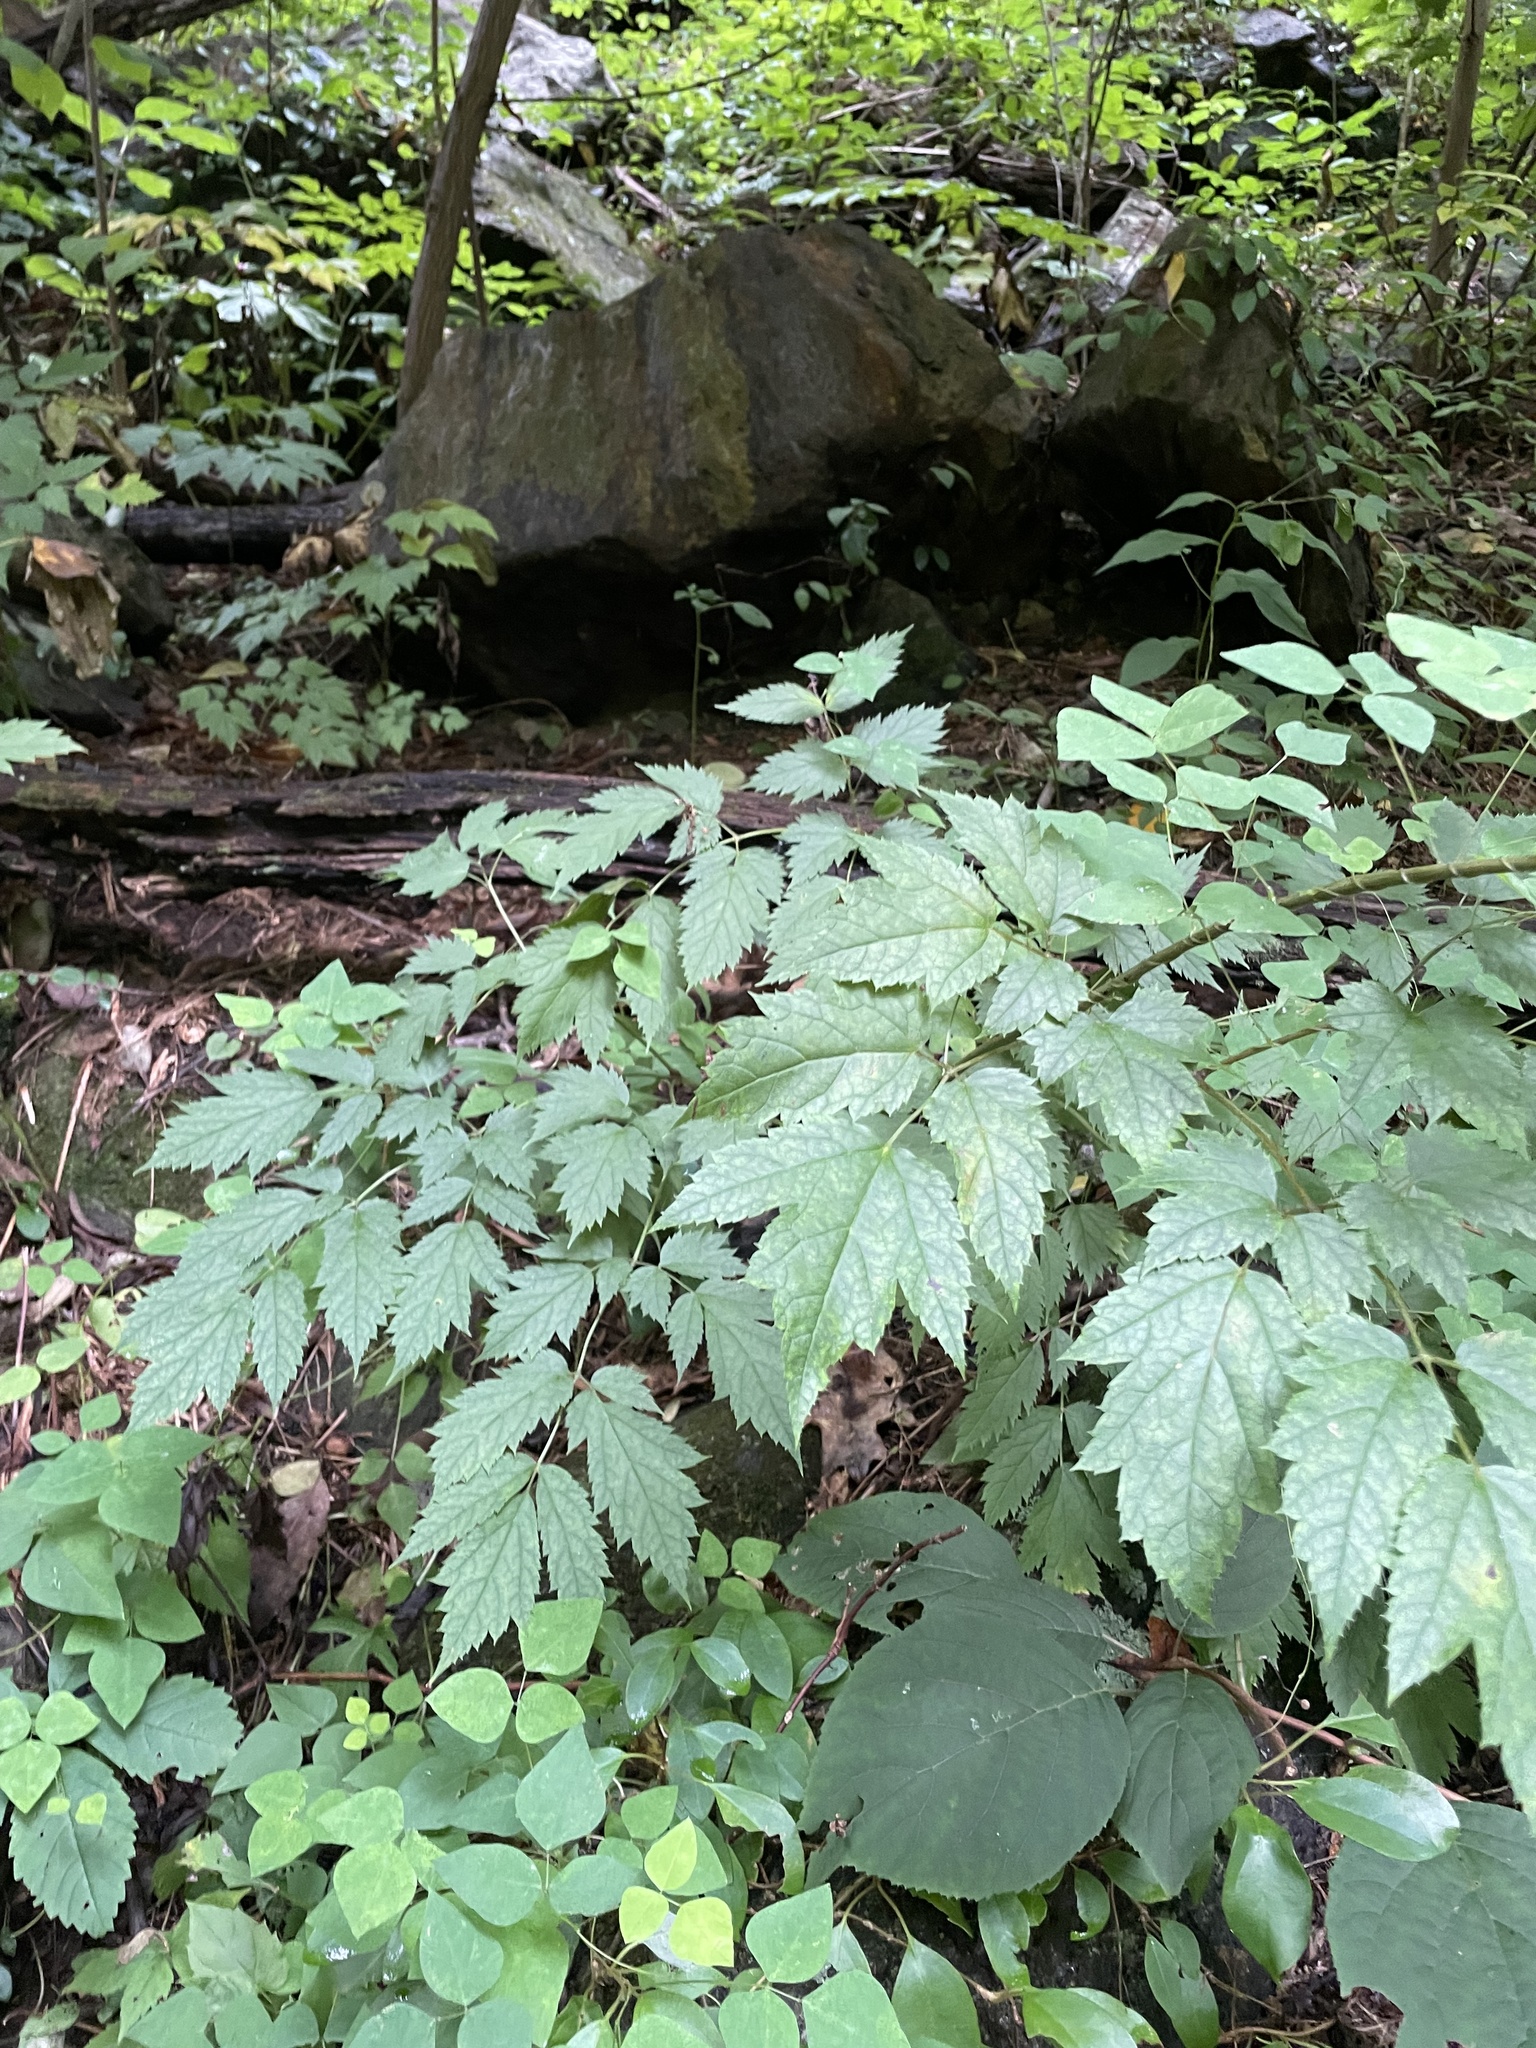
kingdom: Plantae
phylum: Tracheophyta
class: Magnoliopsida
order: Ranunculales
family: Ranunculaceae
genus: Actaea
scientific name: Actaea racemosa
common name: Black cohosh
